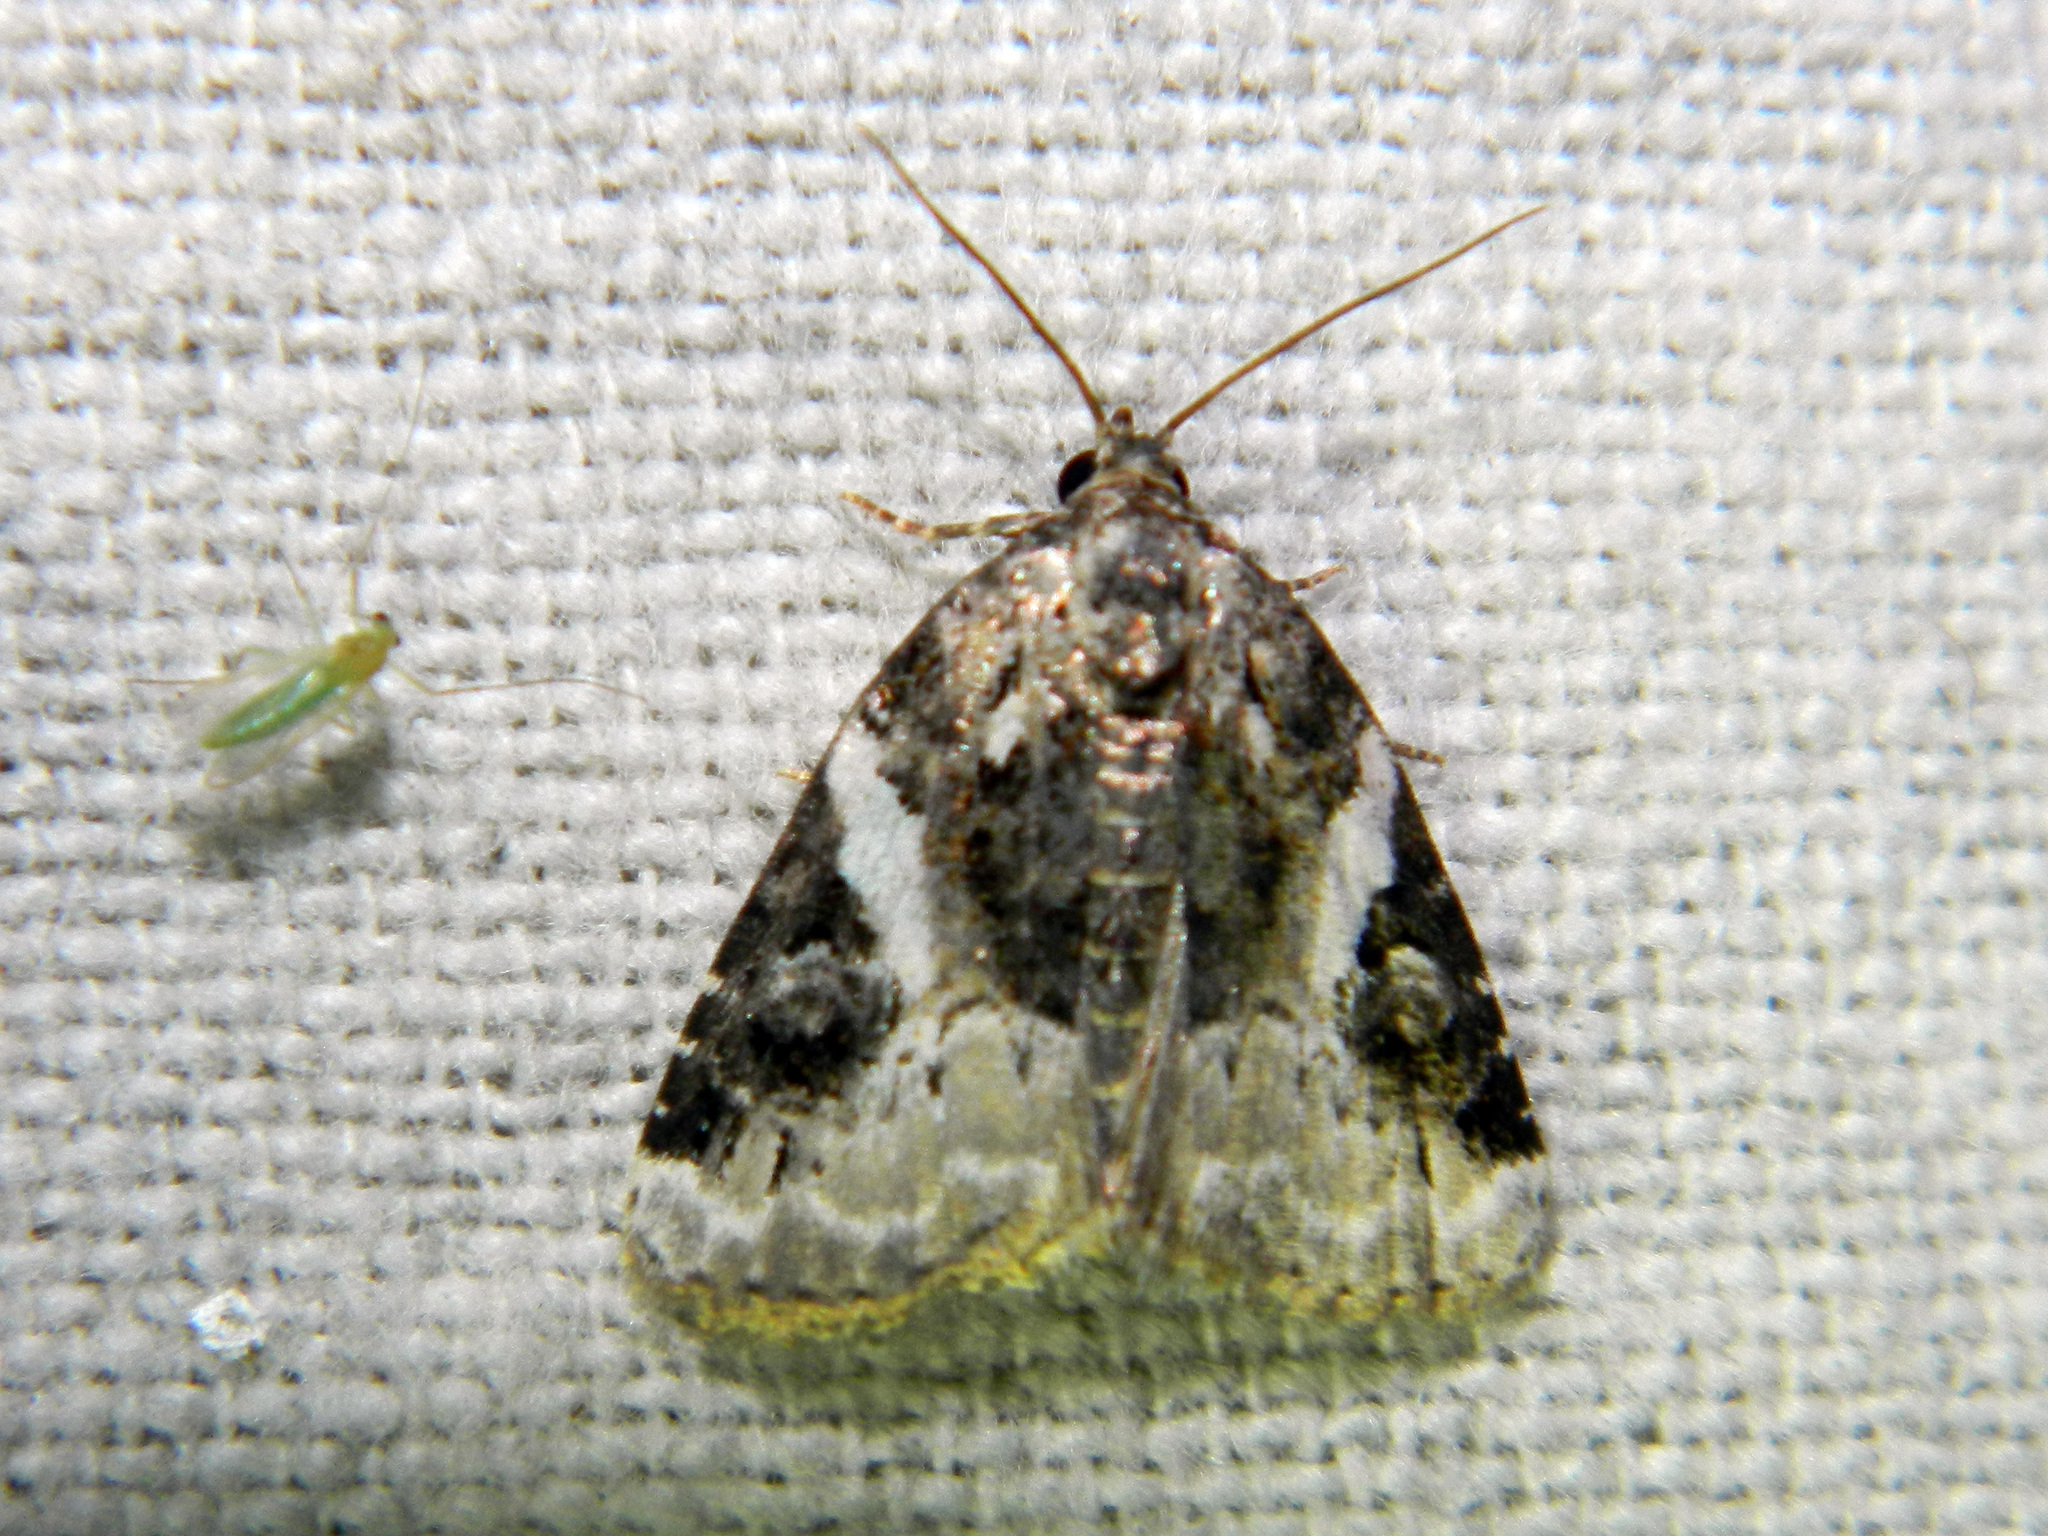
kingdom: Animalia
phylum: Arthropoda
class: Insecta
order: Lepidoptera
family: Noctuidae
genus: Pseudeustrotia
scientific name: Pseudeustrotia carneola
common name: Pink-barred lithacodia moth
